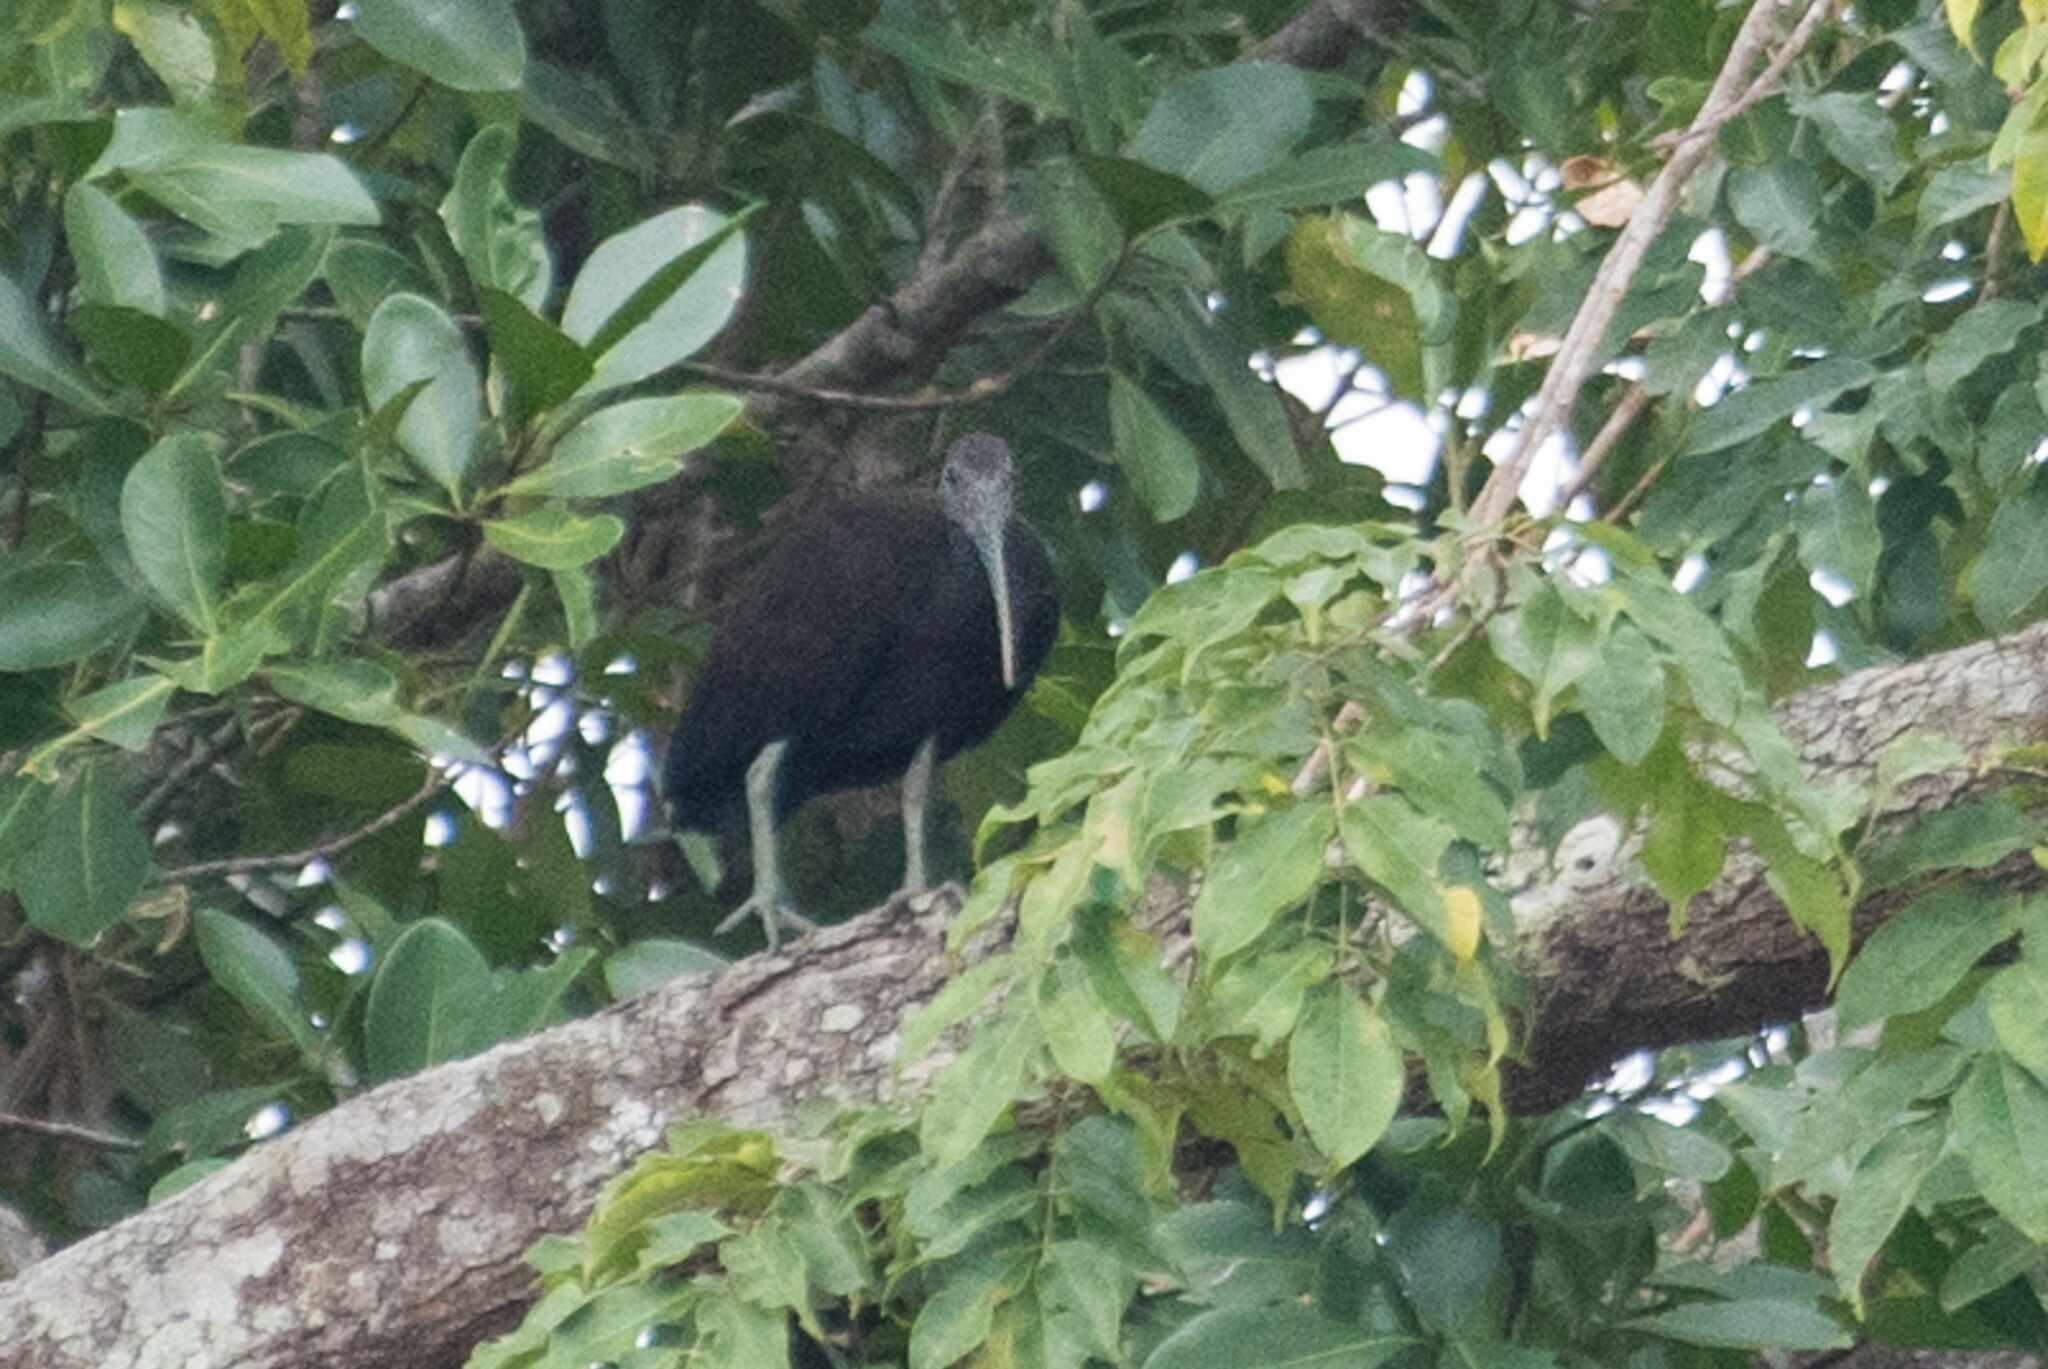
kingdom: Animalia
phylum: Chordata
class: Aves
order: Pelecaniformes
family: Threskiornithidae
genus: Mesembrinibis
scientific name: Mesembrinibis cayennensis
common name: Green ibis
